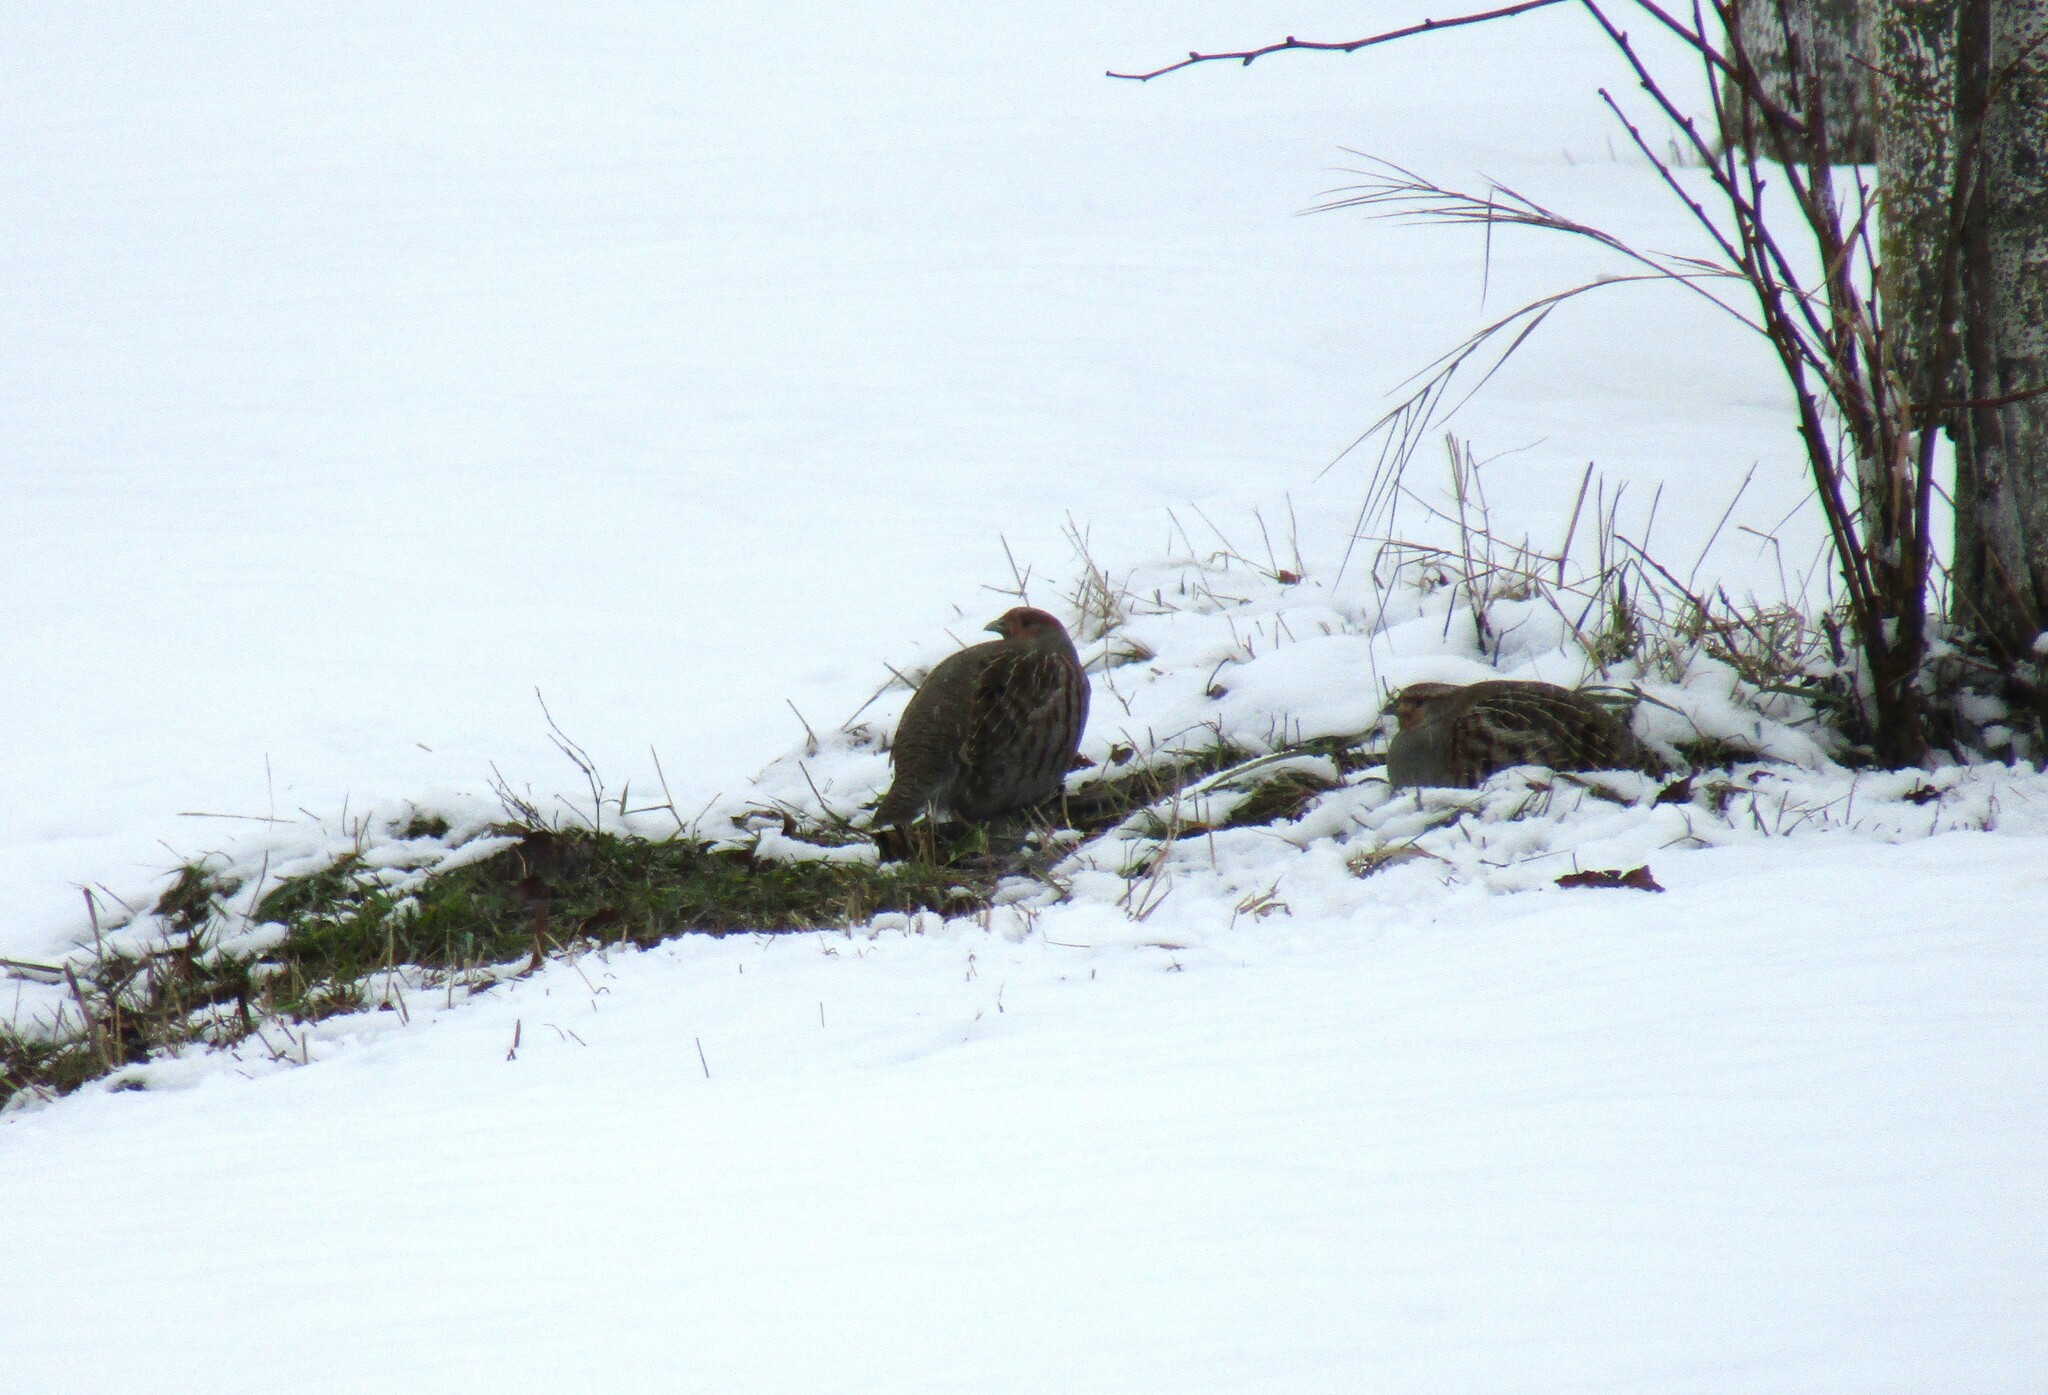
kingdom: Animalia
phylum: Chordata
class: Aves
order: Galliformes
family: Phasianidae
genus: Perdix
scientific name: Perdix perdix
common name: Grey partridge
